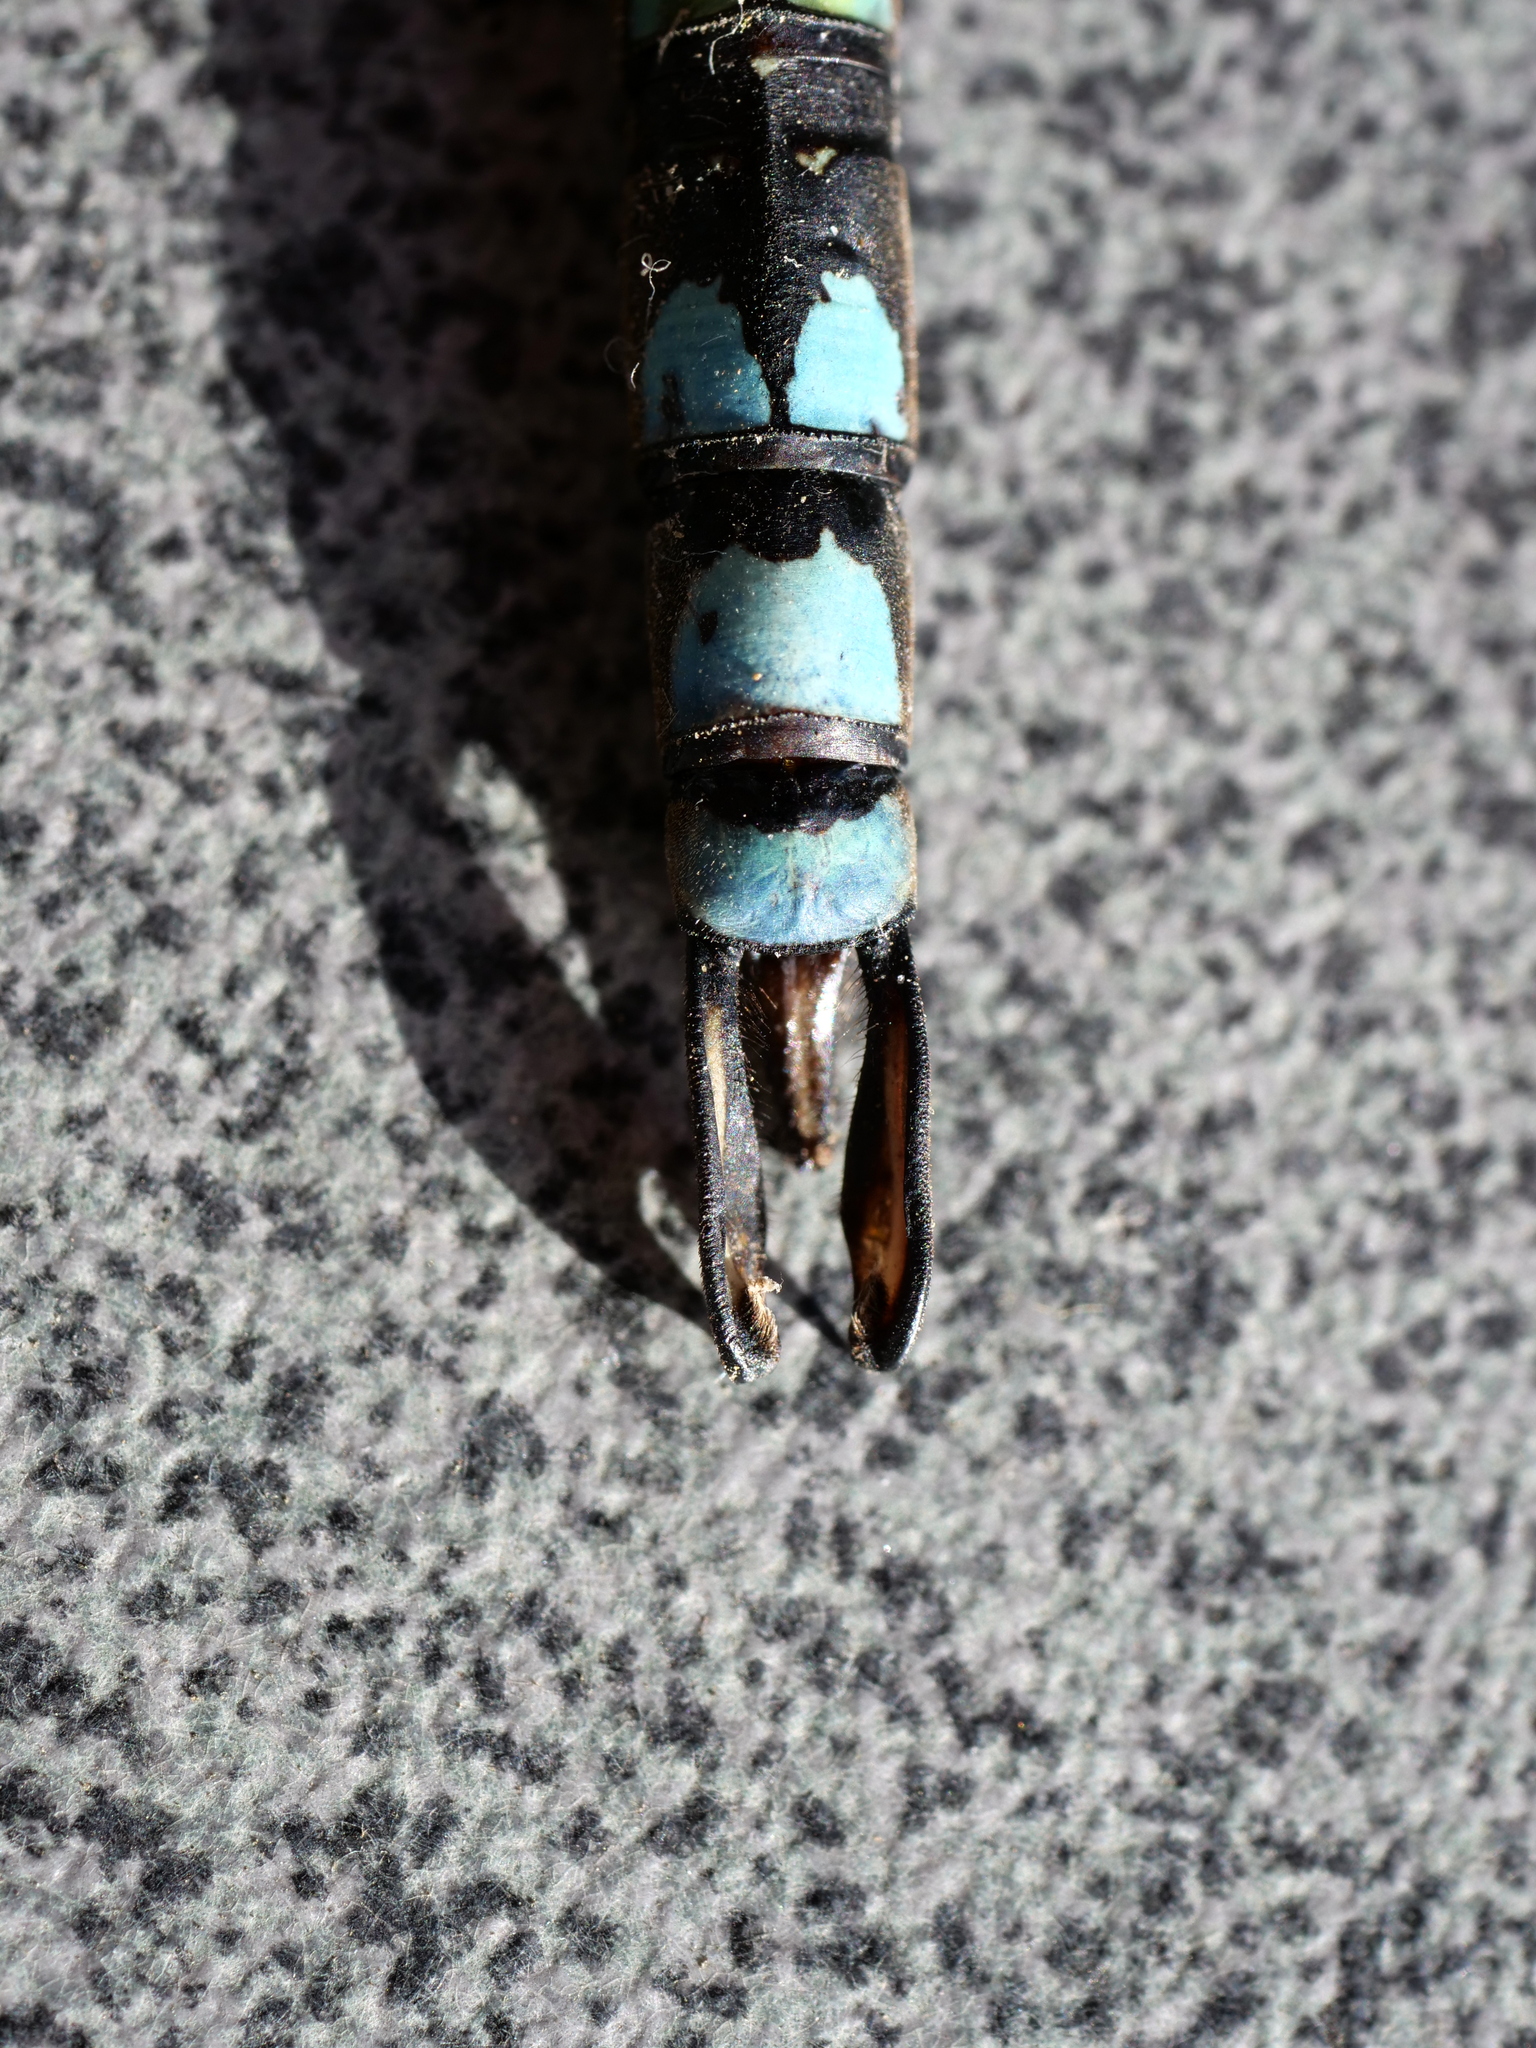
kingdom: Animalia
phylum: Arthropoda
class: Insecta
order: Odonata
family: Aeshnidae
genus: Aeshna
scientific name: Aeshna cyanea
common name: Southern hawker
